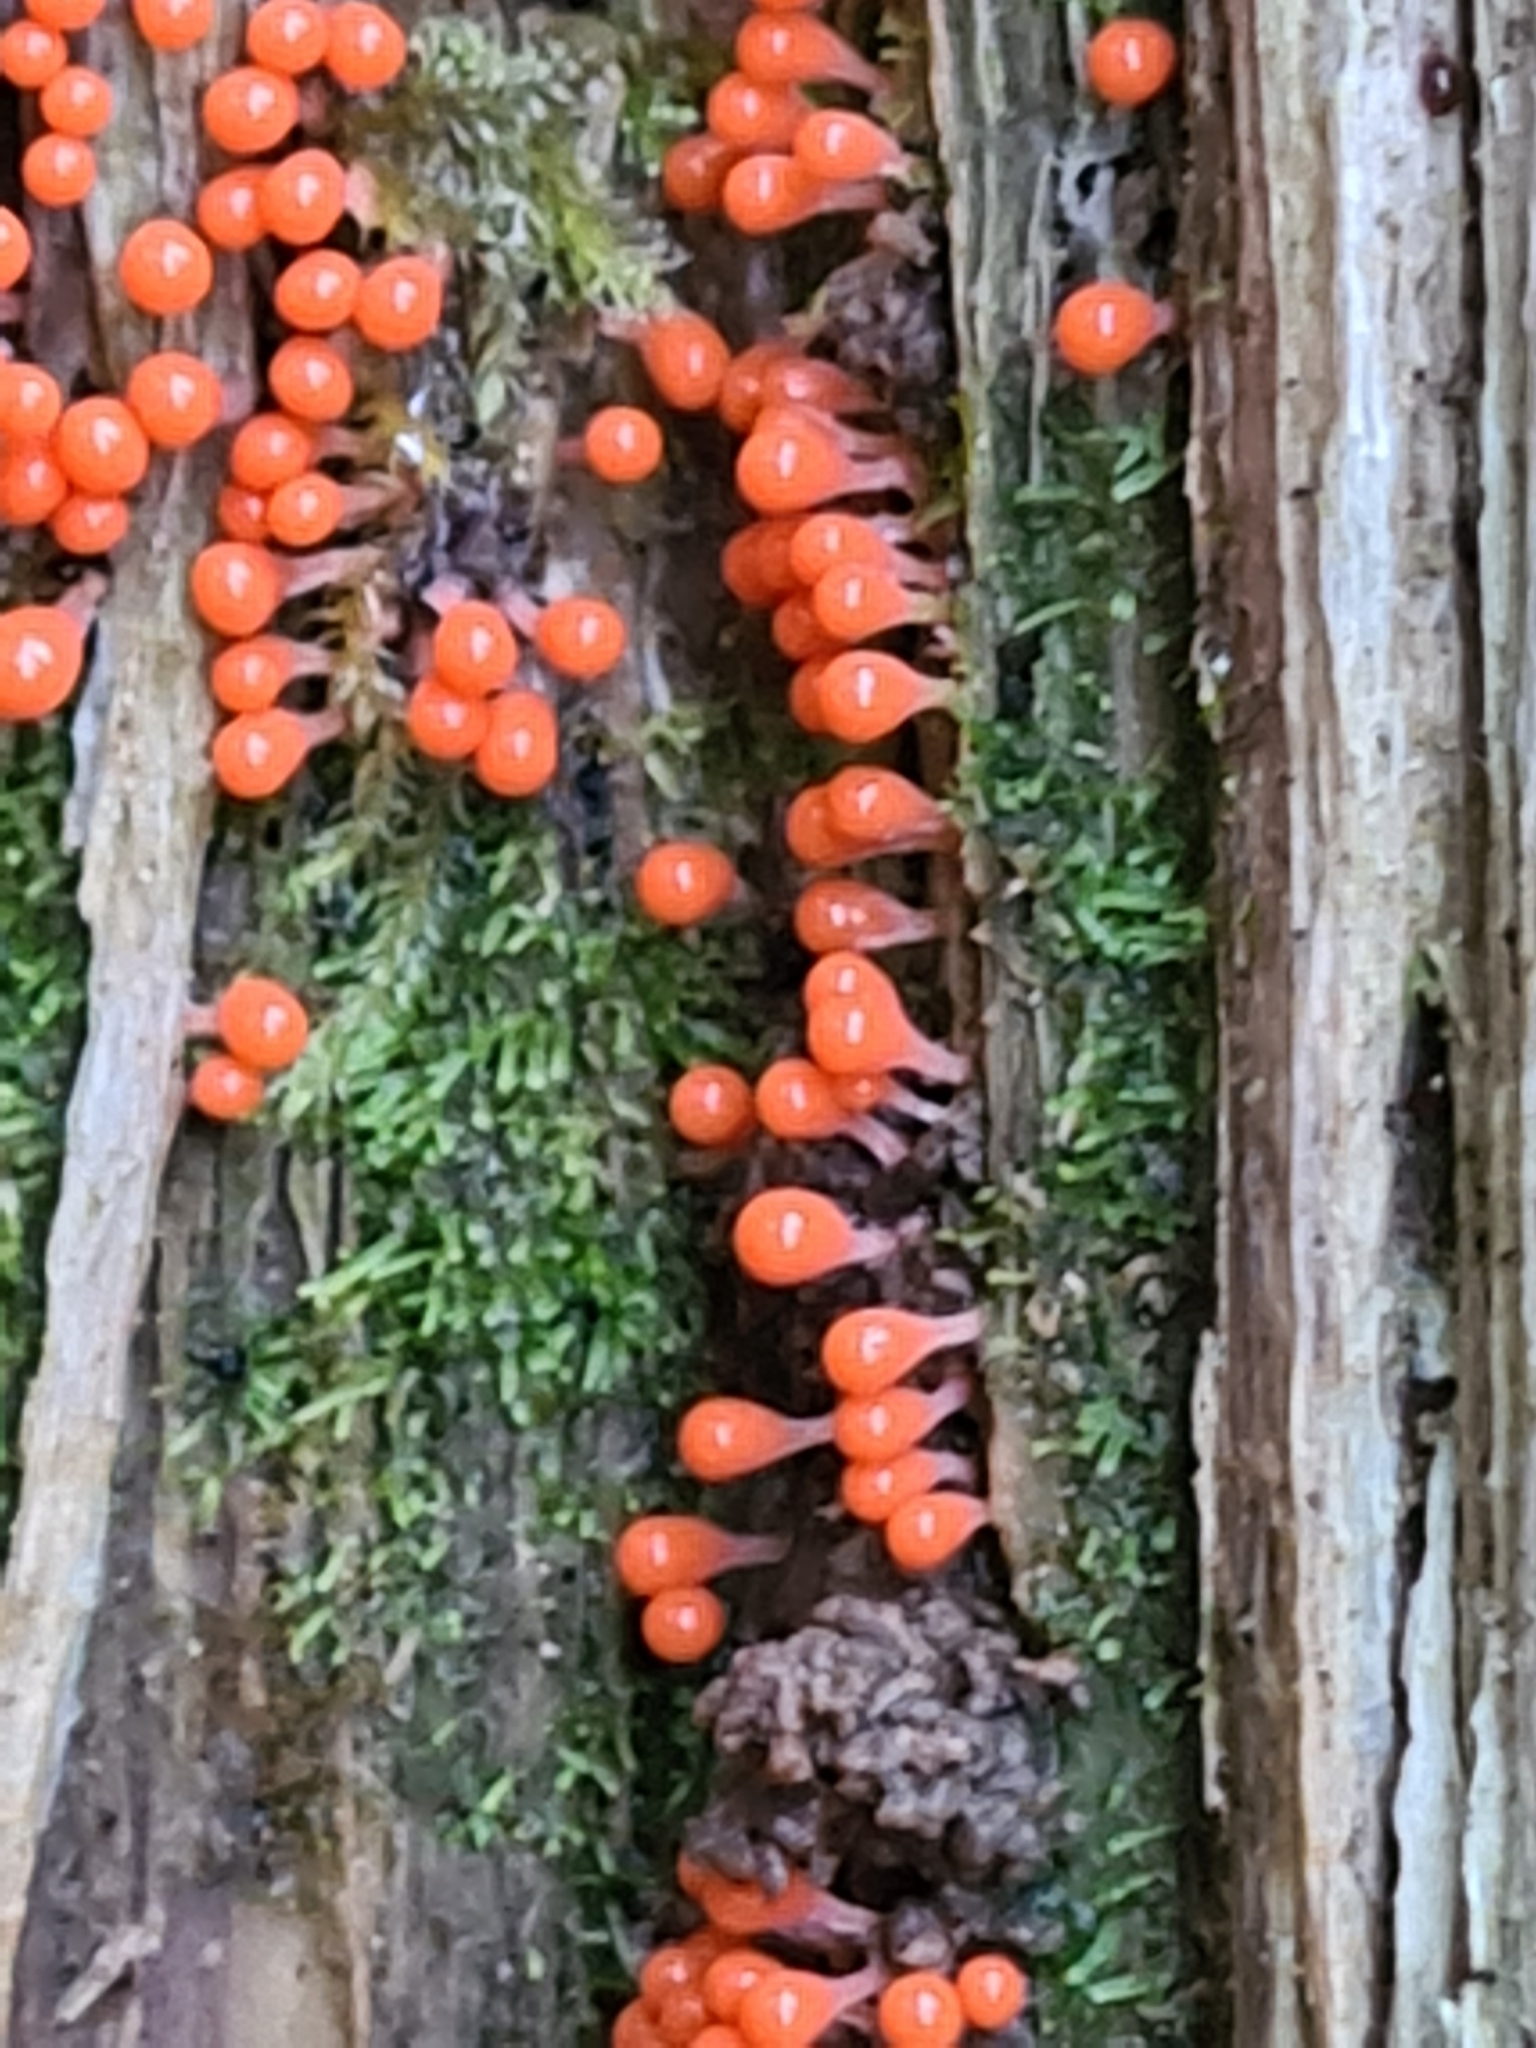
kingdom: Protozoa
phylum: Mycetozoa
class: Myxomycetes
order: Trichiales
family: Arcyriaceae
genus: Hemitrichia
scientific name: Hemitrichia decipiens
